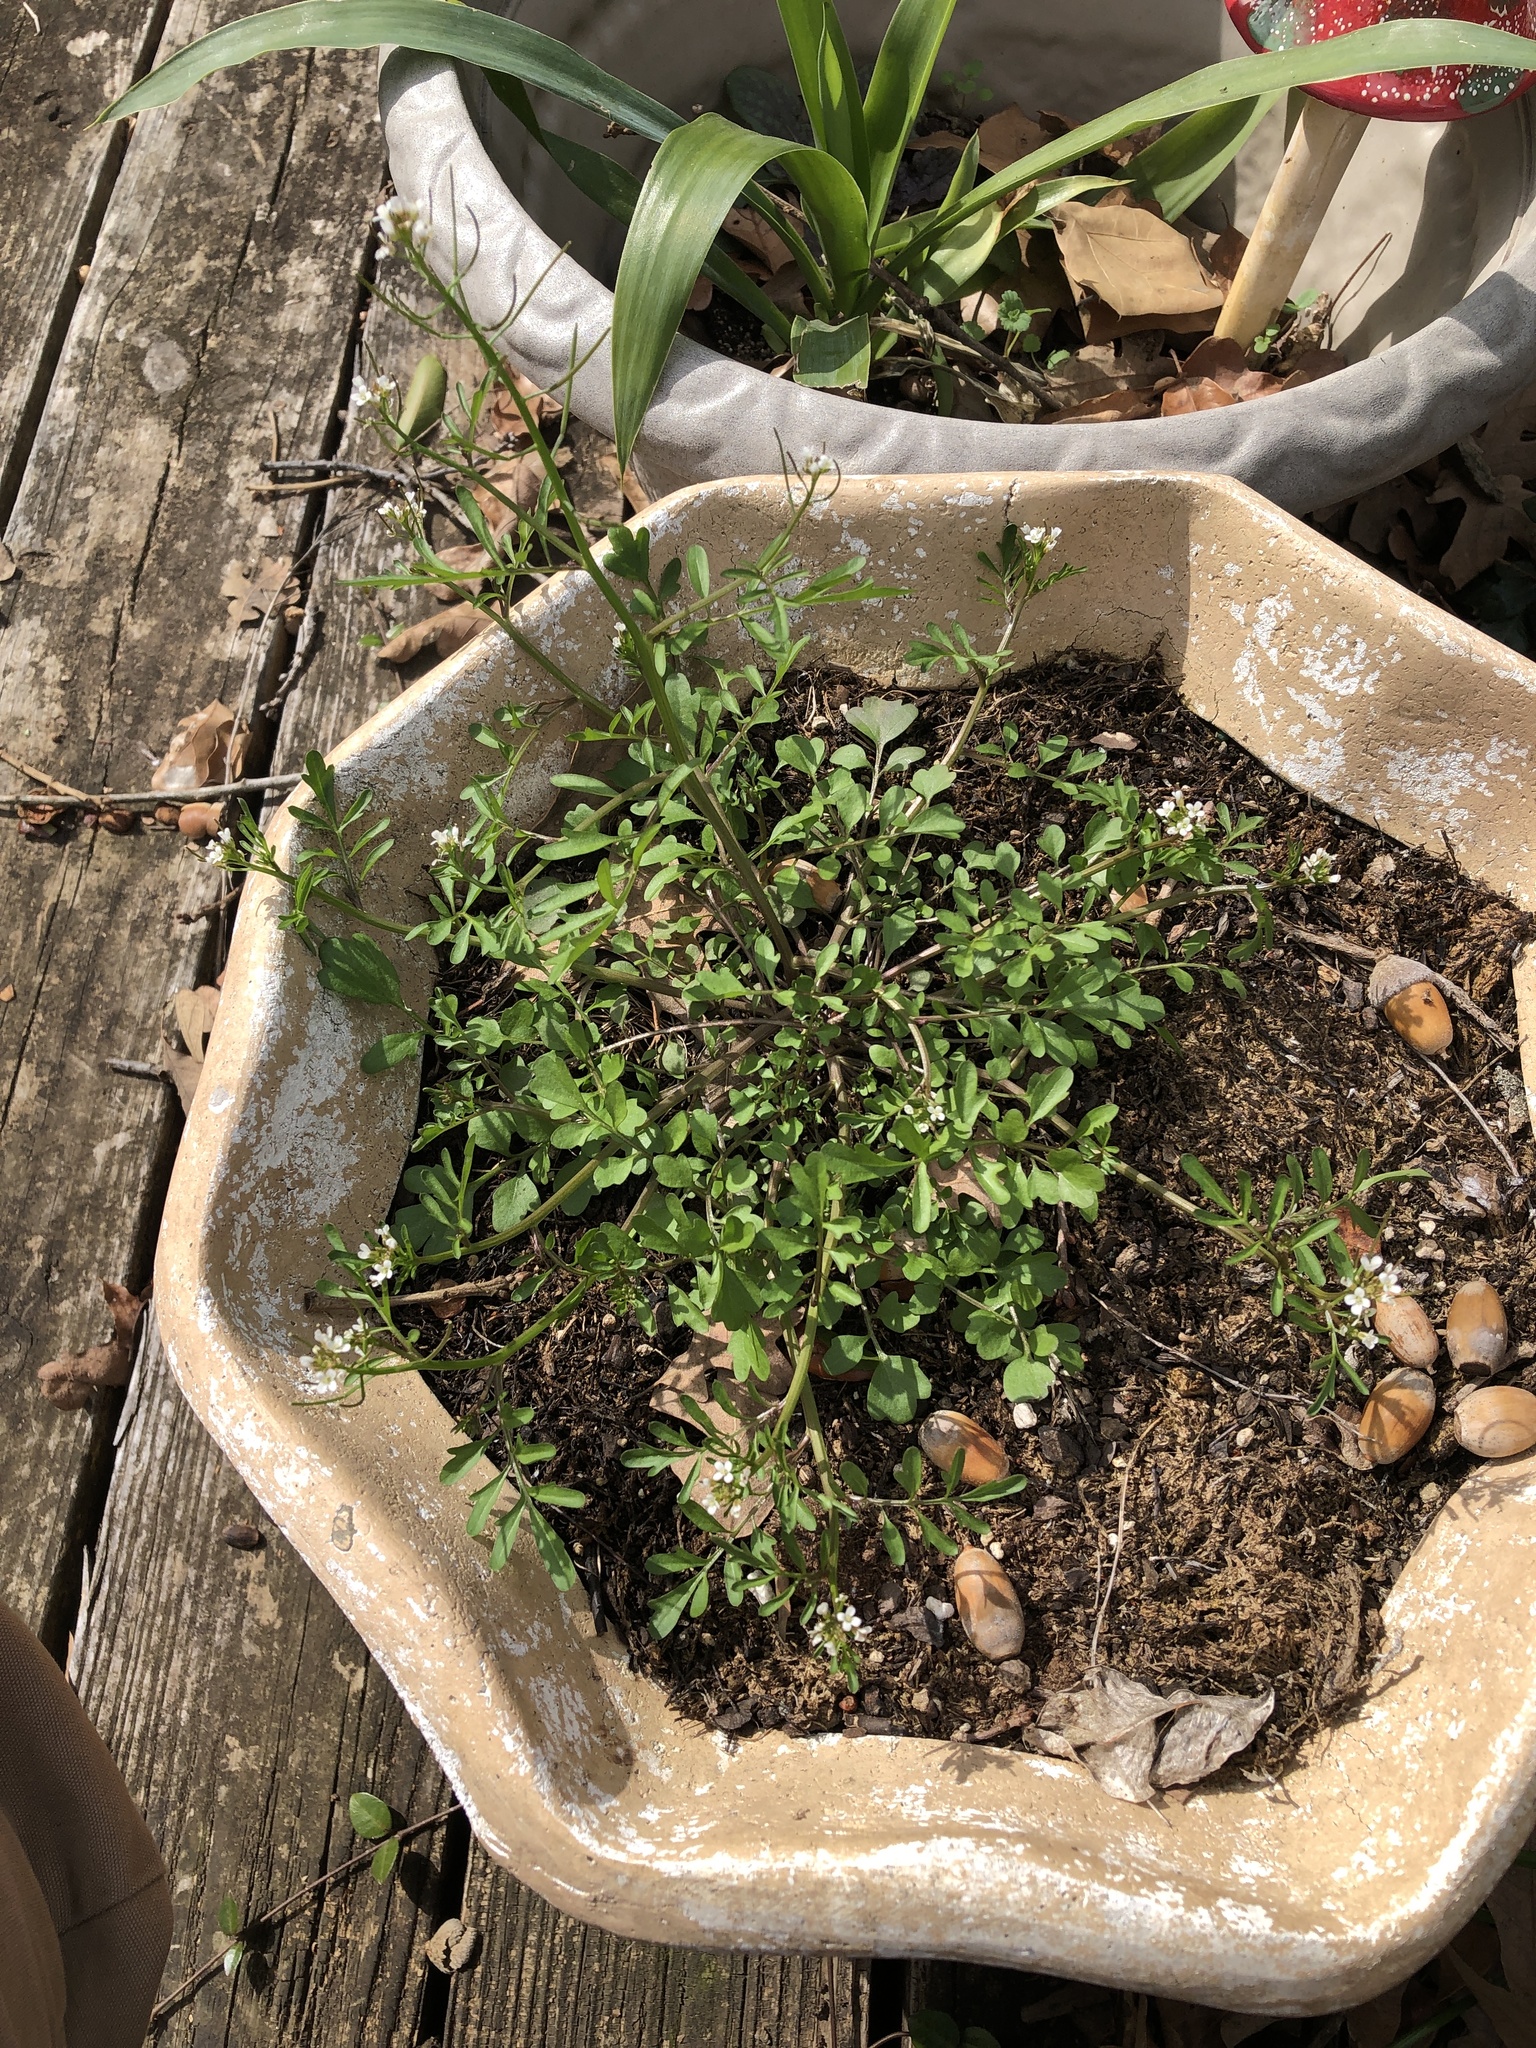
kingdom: Plantae
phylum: Tracheophyta
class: Magnoliopsida
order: Brassicales
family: Brassicaceae
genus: Cardamine
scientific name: Cardamine occulta
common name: Asian wavy bittercress
